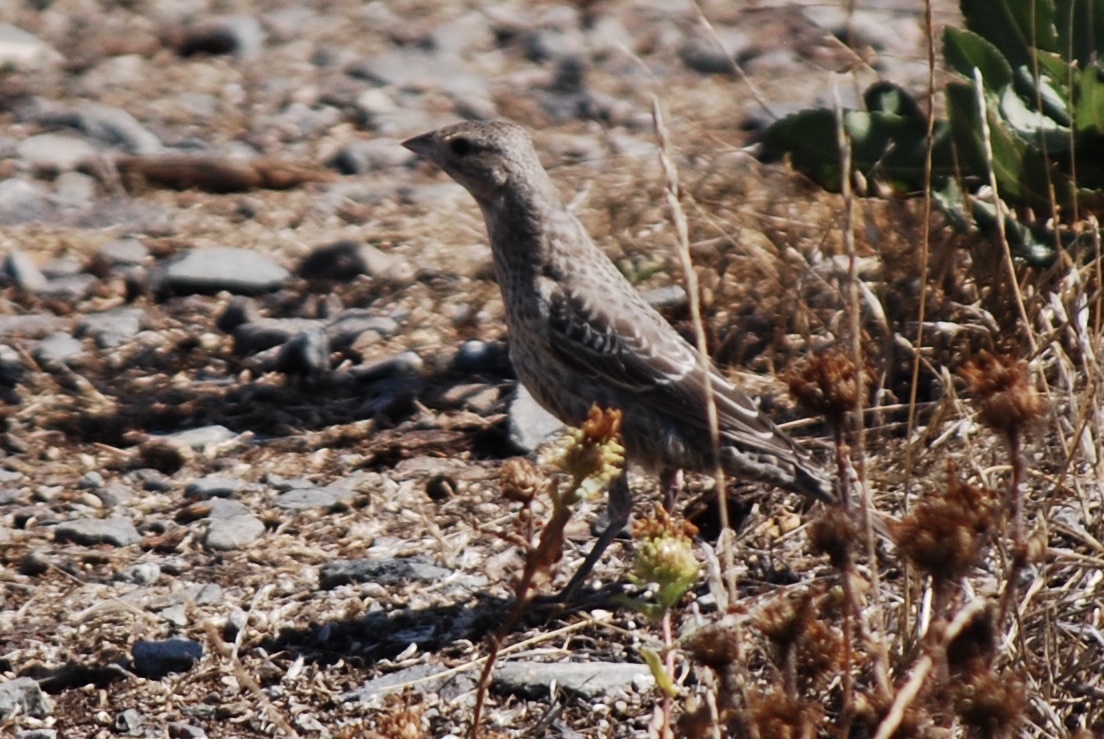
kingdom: Animalia
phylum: Chordata
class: Aves
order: Passeriformes
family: Icteridae
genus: Molothrus
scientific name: Molothrus ater
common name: Brown-headed cowbird
